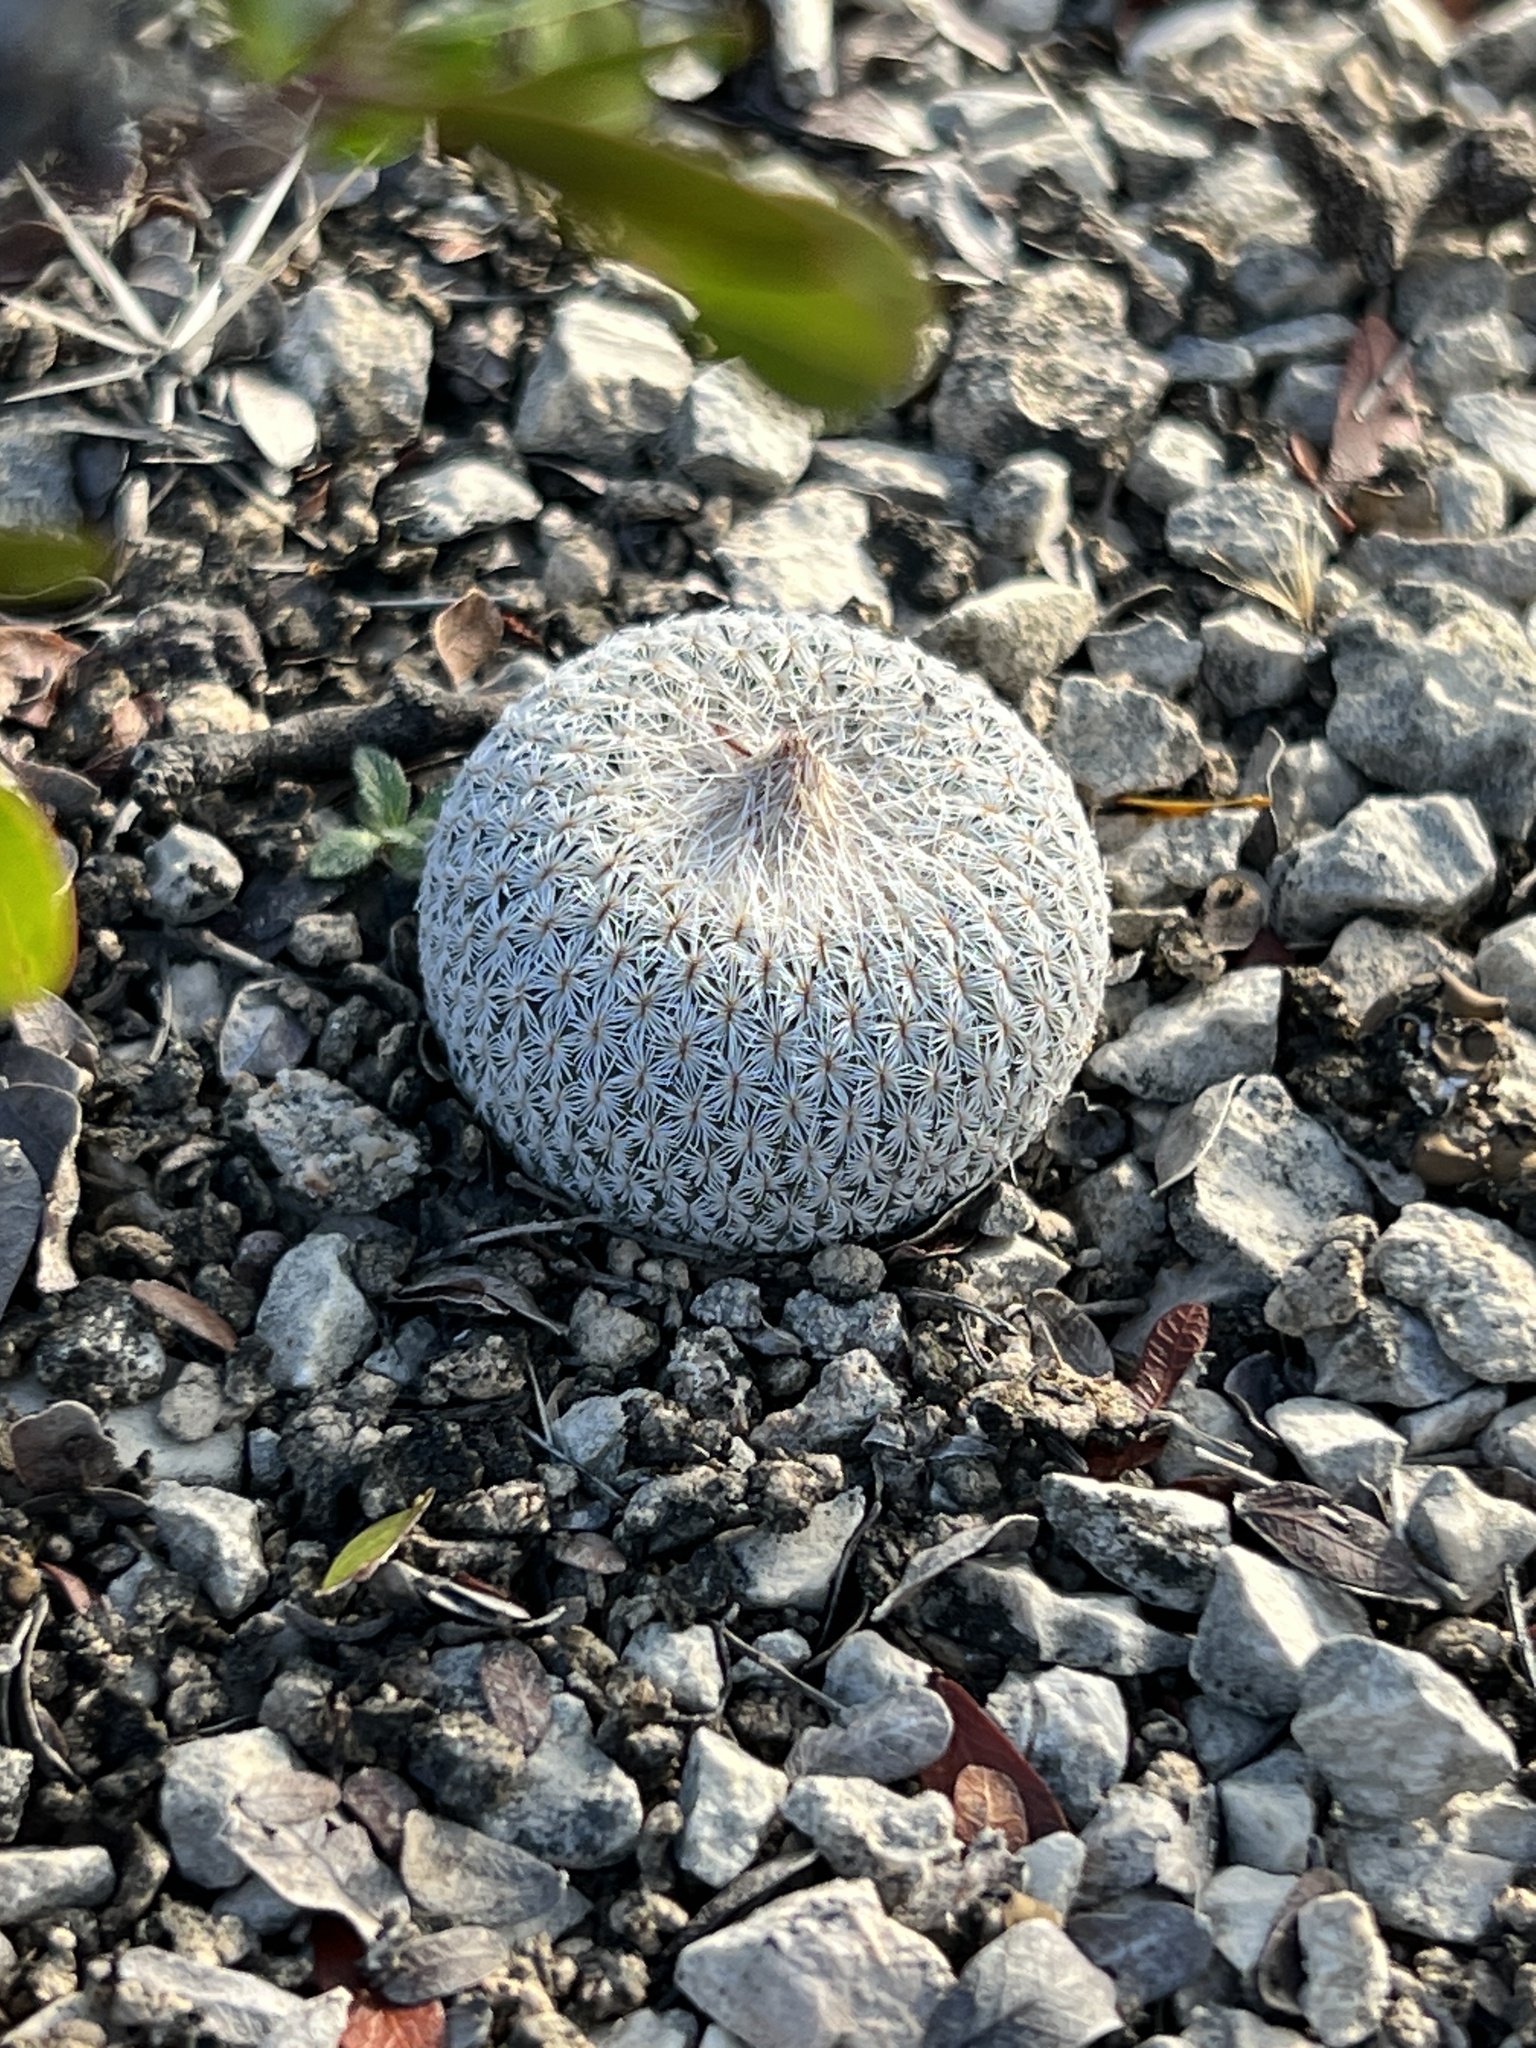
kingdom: Plantae
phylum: Tracheophyta
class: Magnoliopsida
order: Caryophyllales
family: Cactaceae
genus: Epithelantha
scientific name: Epithelantha micromeris
